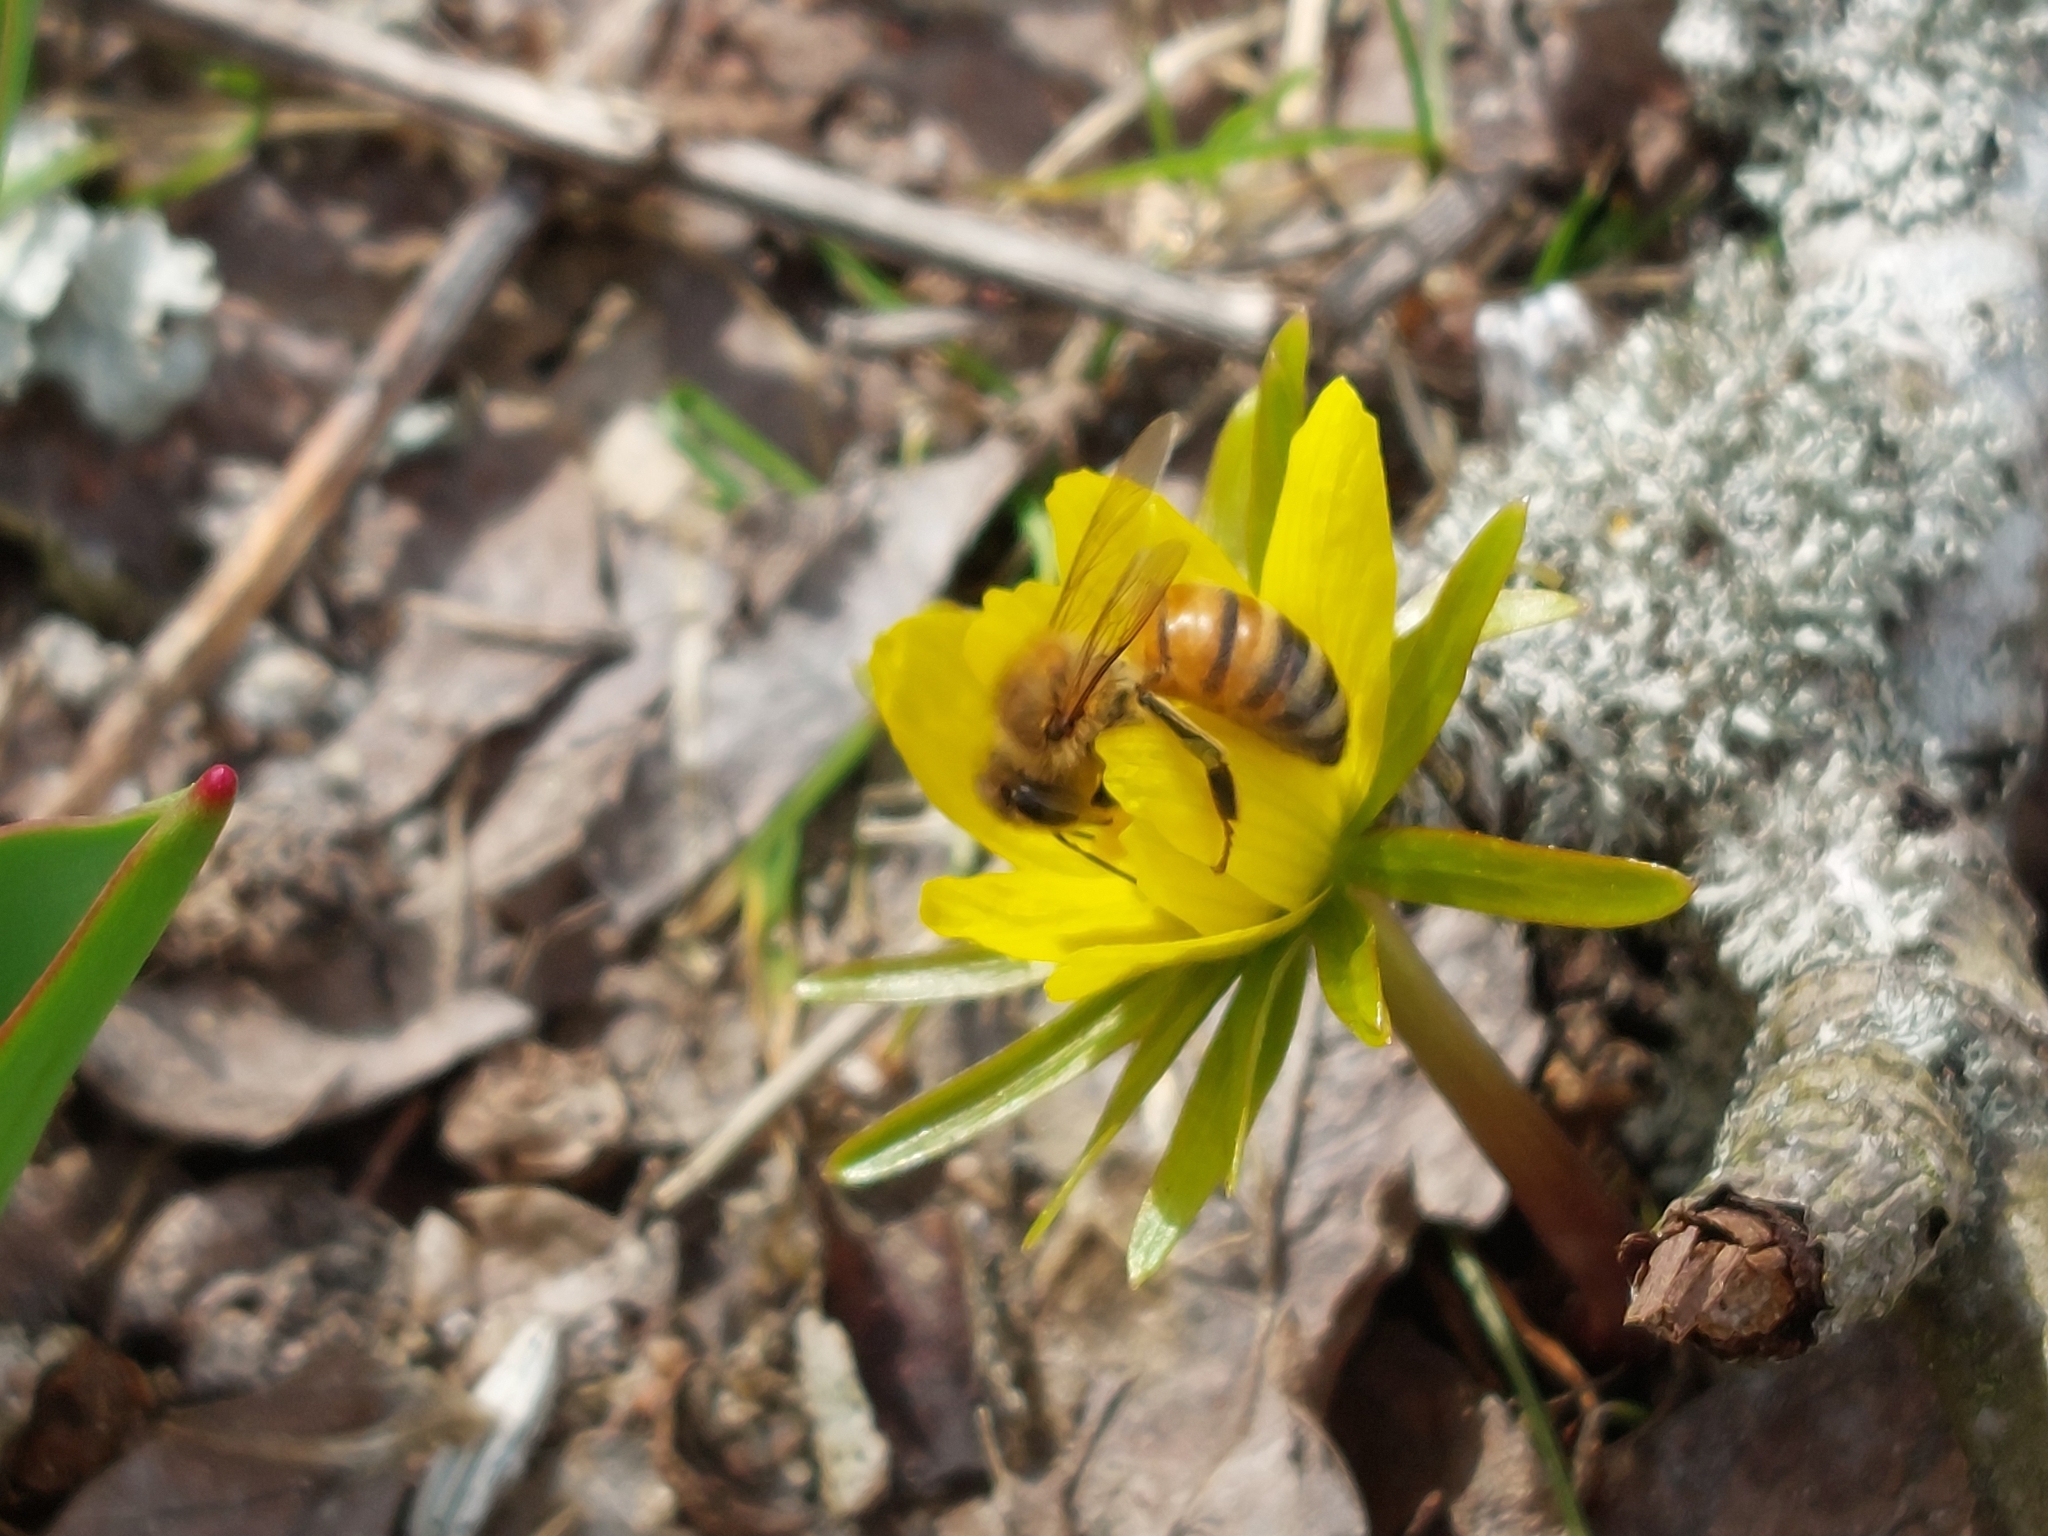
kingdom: Animalia
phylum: Arthropoda
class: Insecta
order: Hymenoptera
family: Apidae
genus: Apis
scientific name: Apis mellifera
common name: Honey bee
